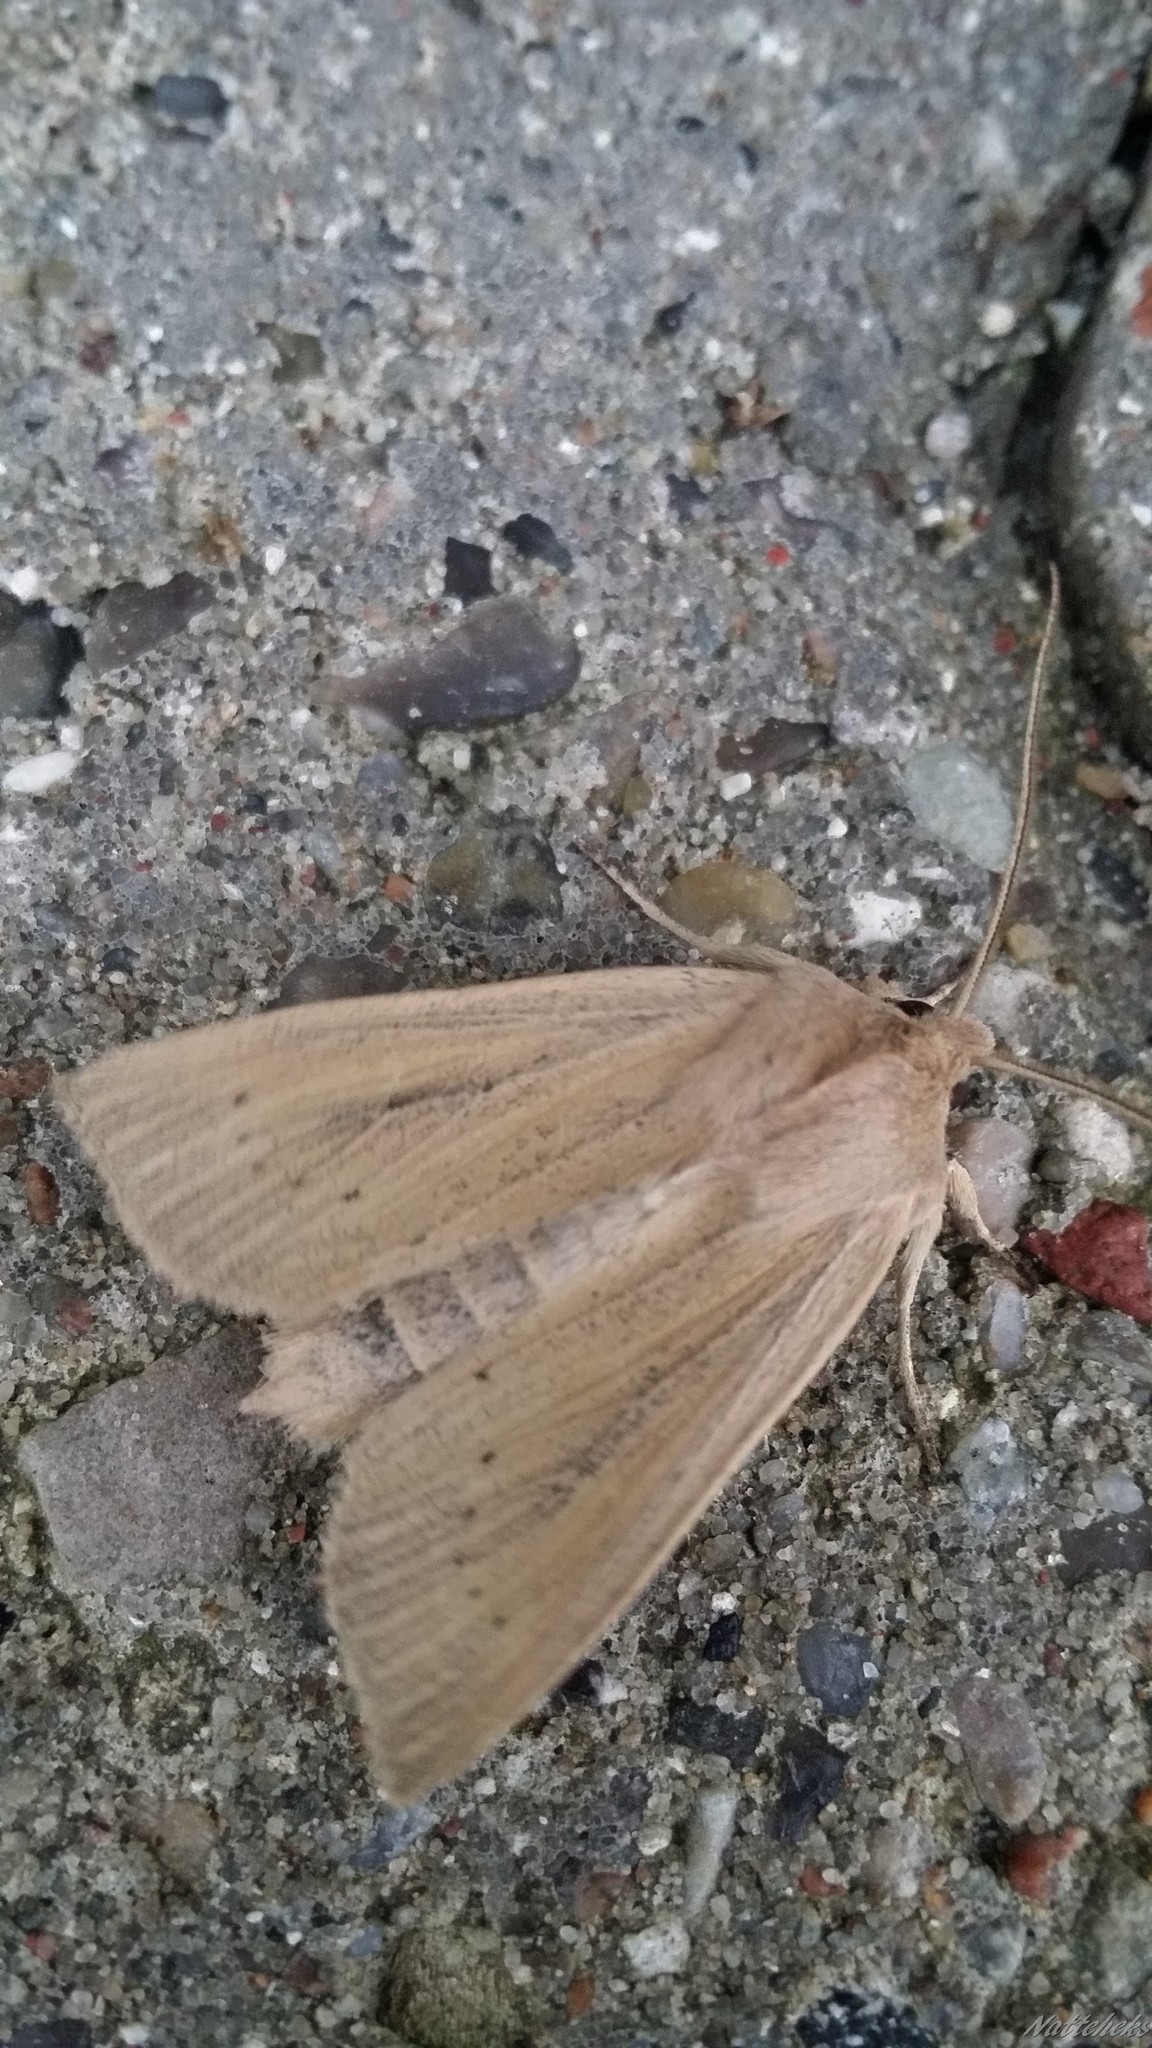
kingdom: Animalia
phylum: Arthropoda
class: Insecta
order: Lepidoptera
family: Noctuidae
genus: Rhizedra
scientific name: Rhizedra lutosa
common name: Large wainscot
